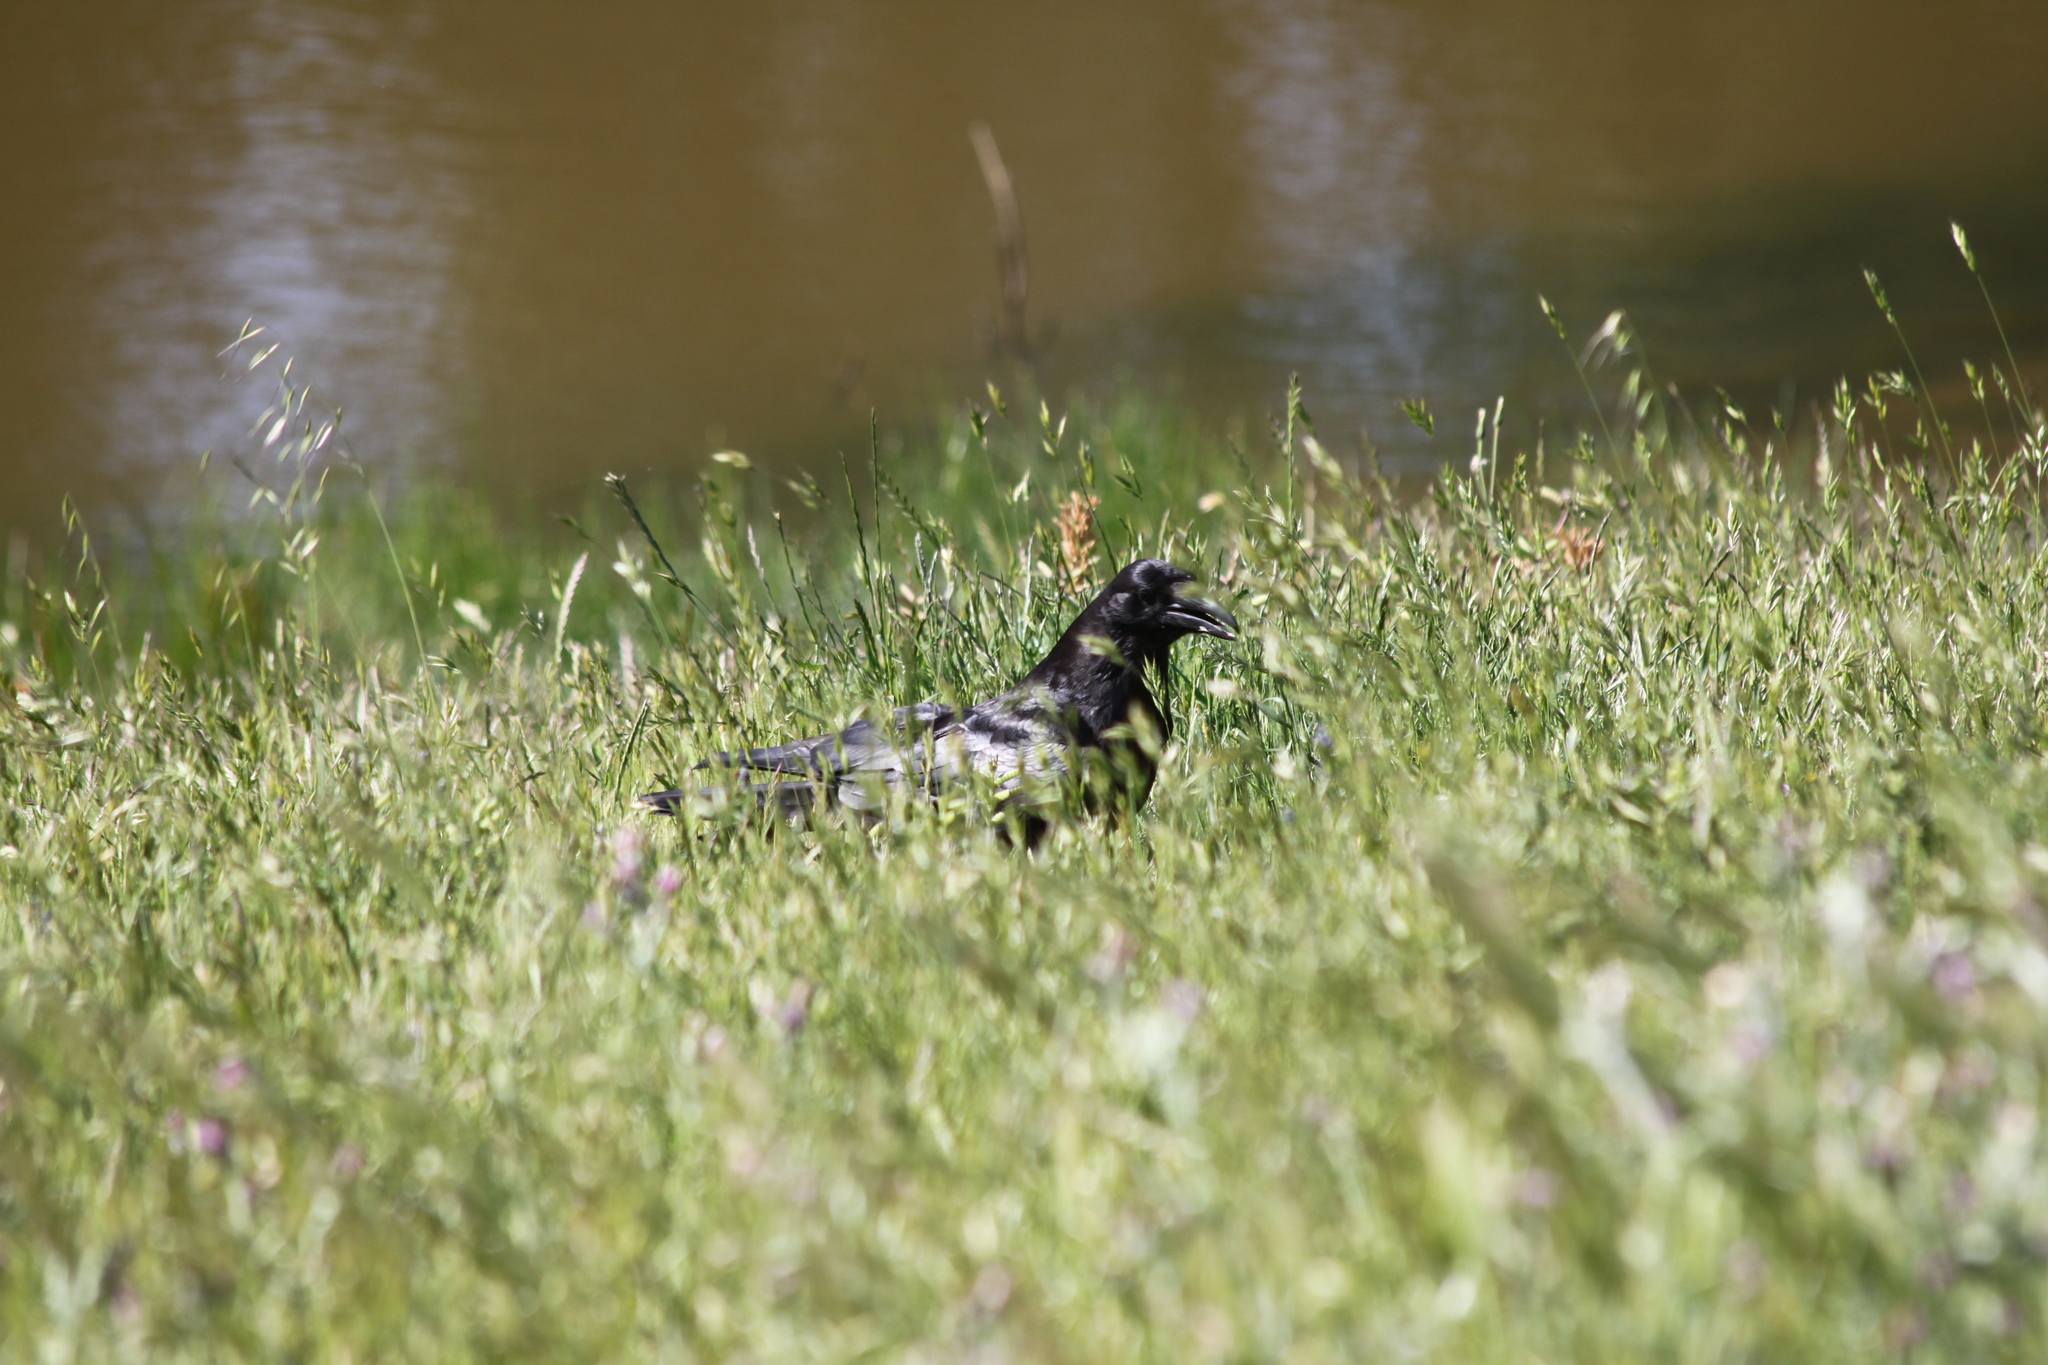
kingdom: Animalia
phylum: Chordata
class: Aves
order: Passeriformes
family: Corvidae
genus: Corvus
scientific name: Corvus corax
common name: Common raven
